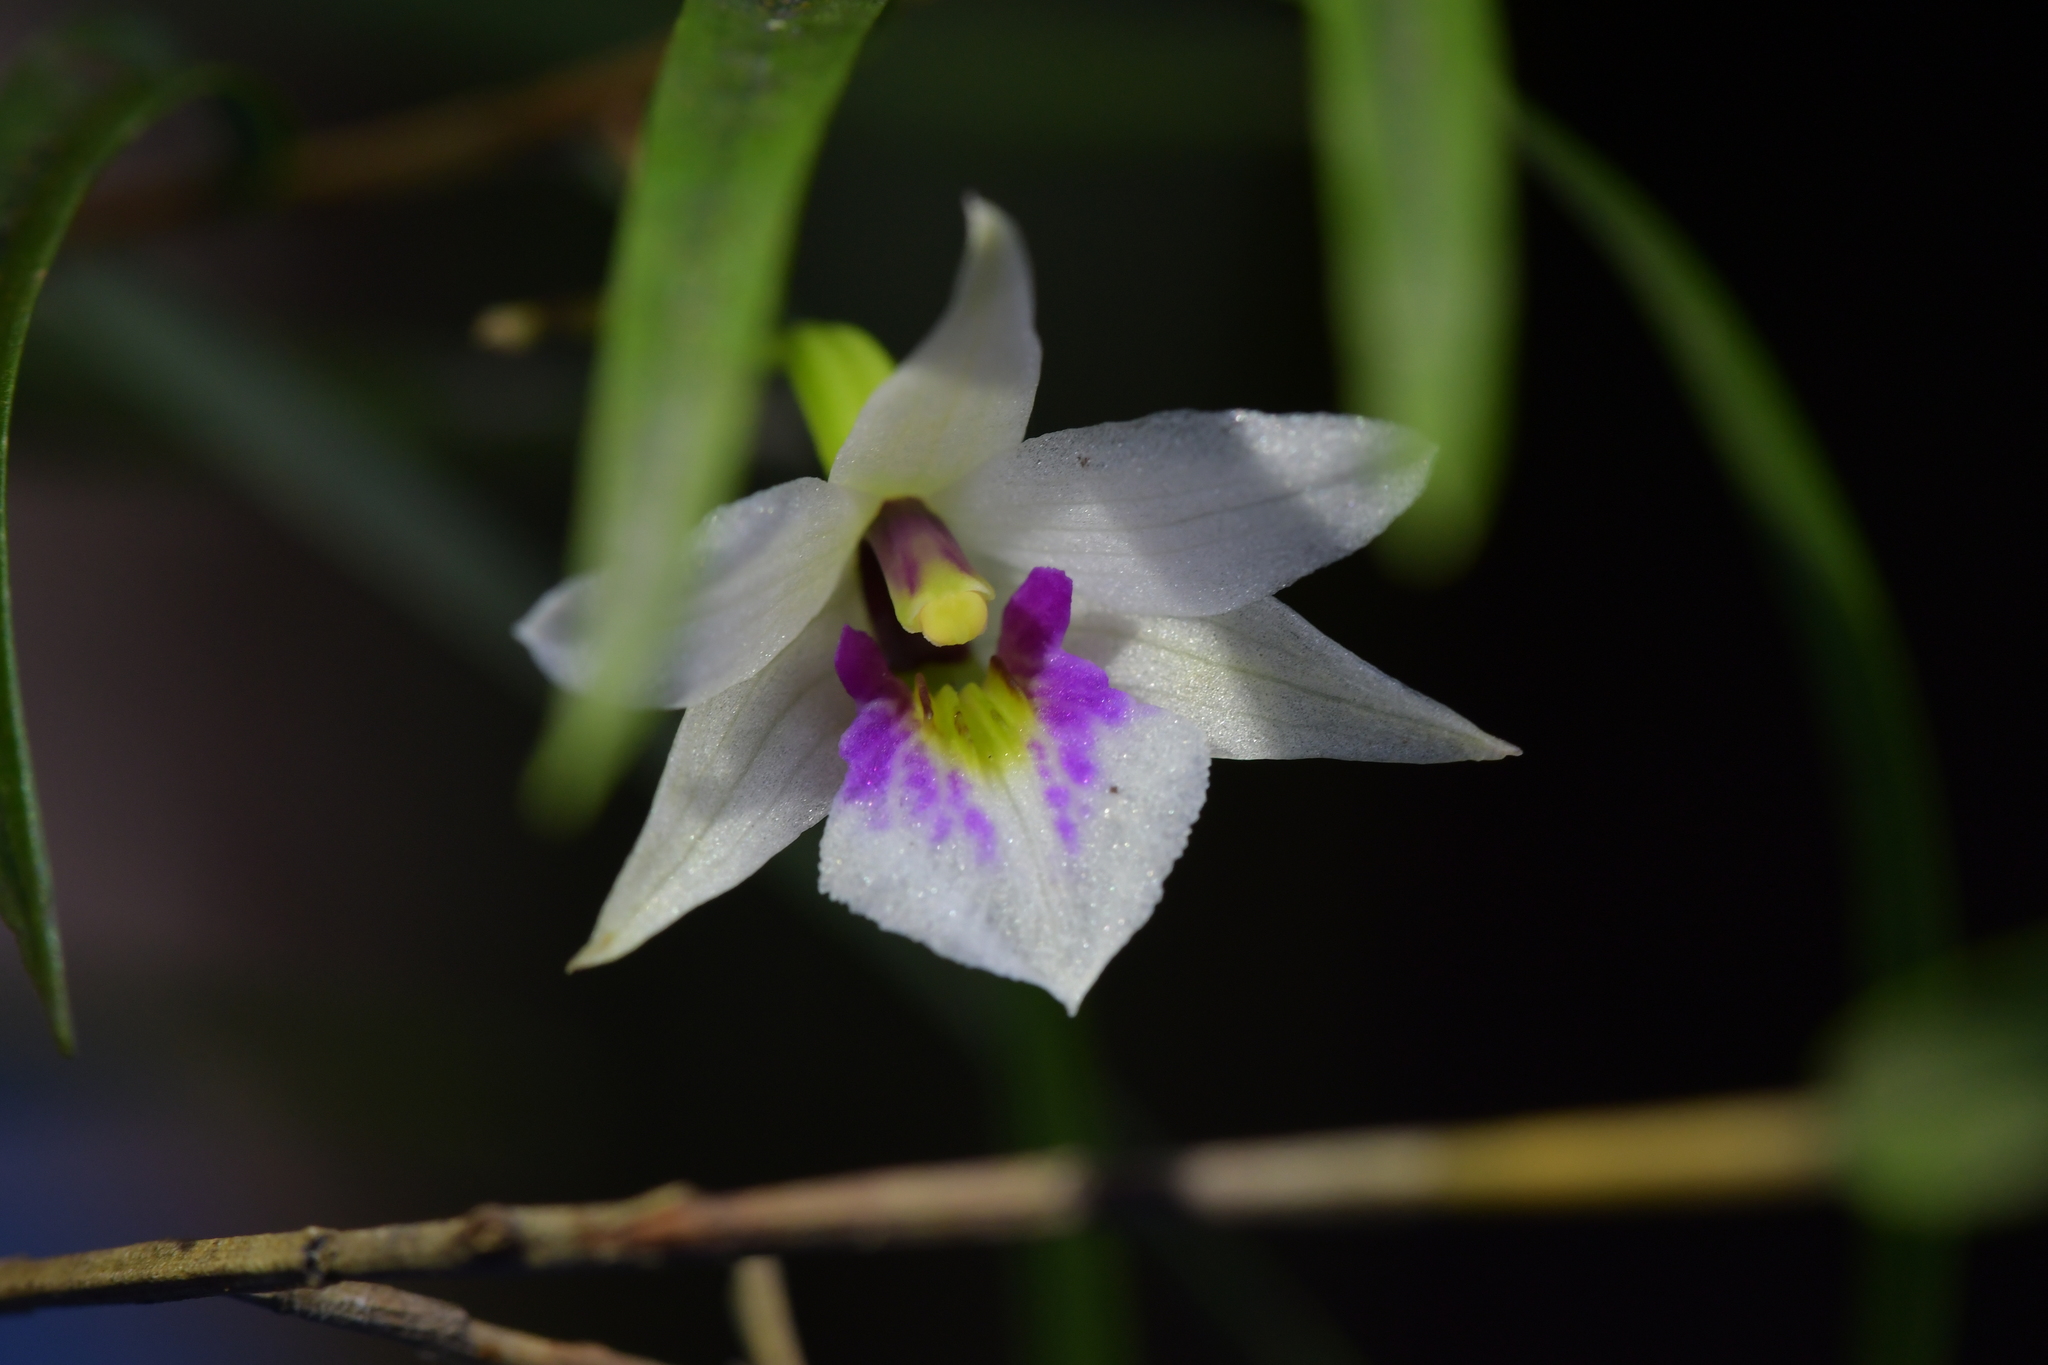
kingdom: Plantae
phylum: Tracheophyta
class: Liliopsida
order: Asparagales
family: Orchidaceae
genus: Dendrobium
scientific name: Dendrobium cunninghamii
